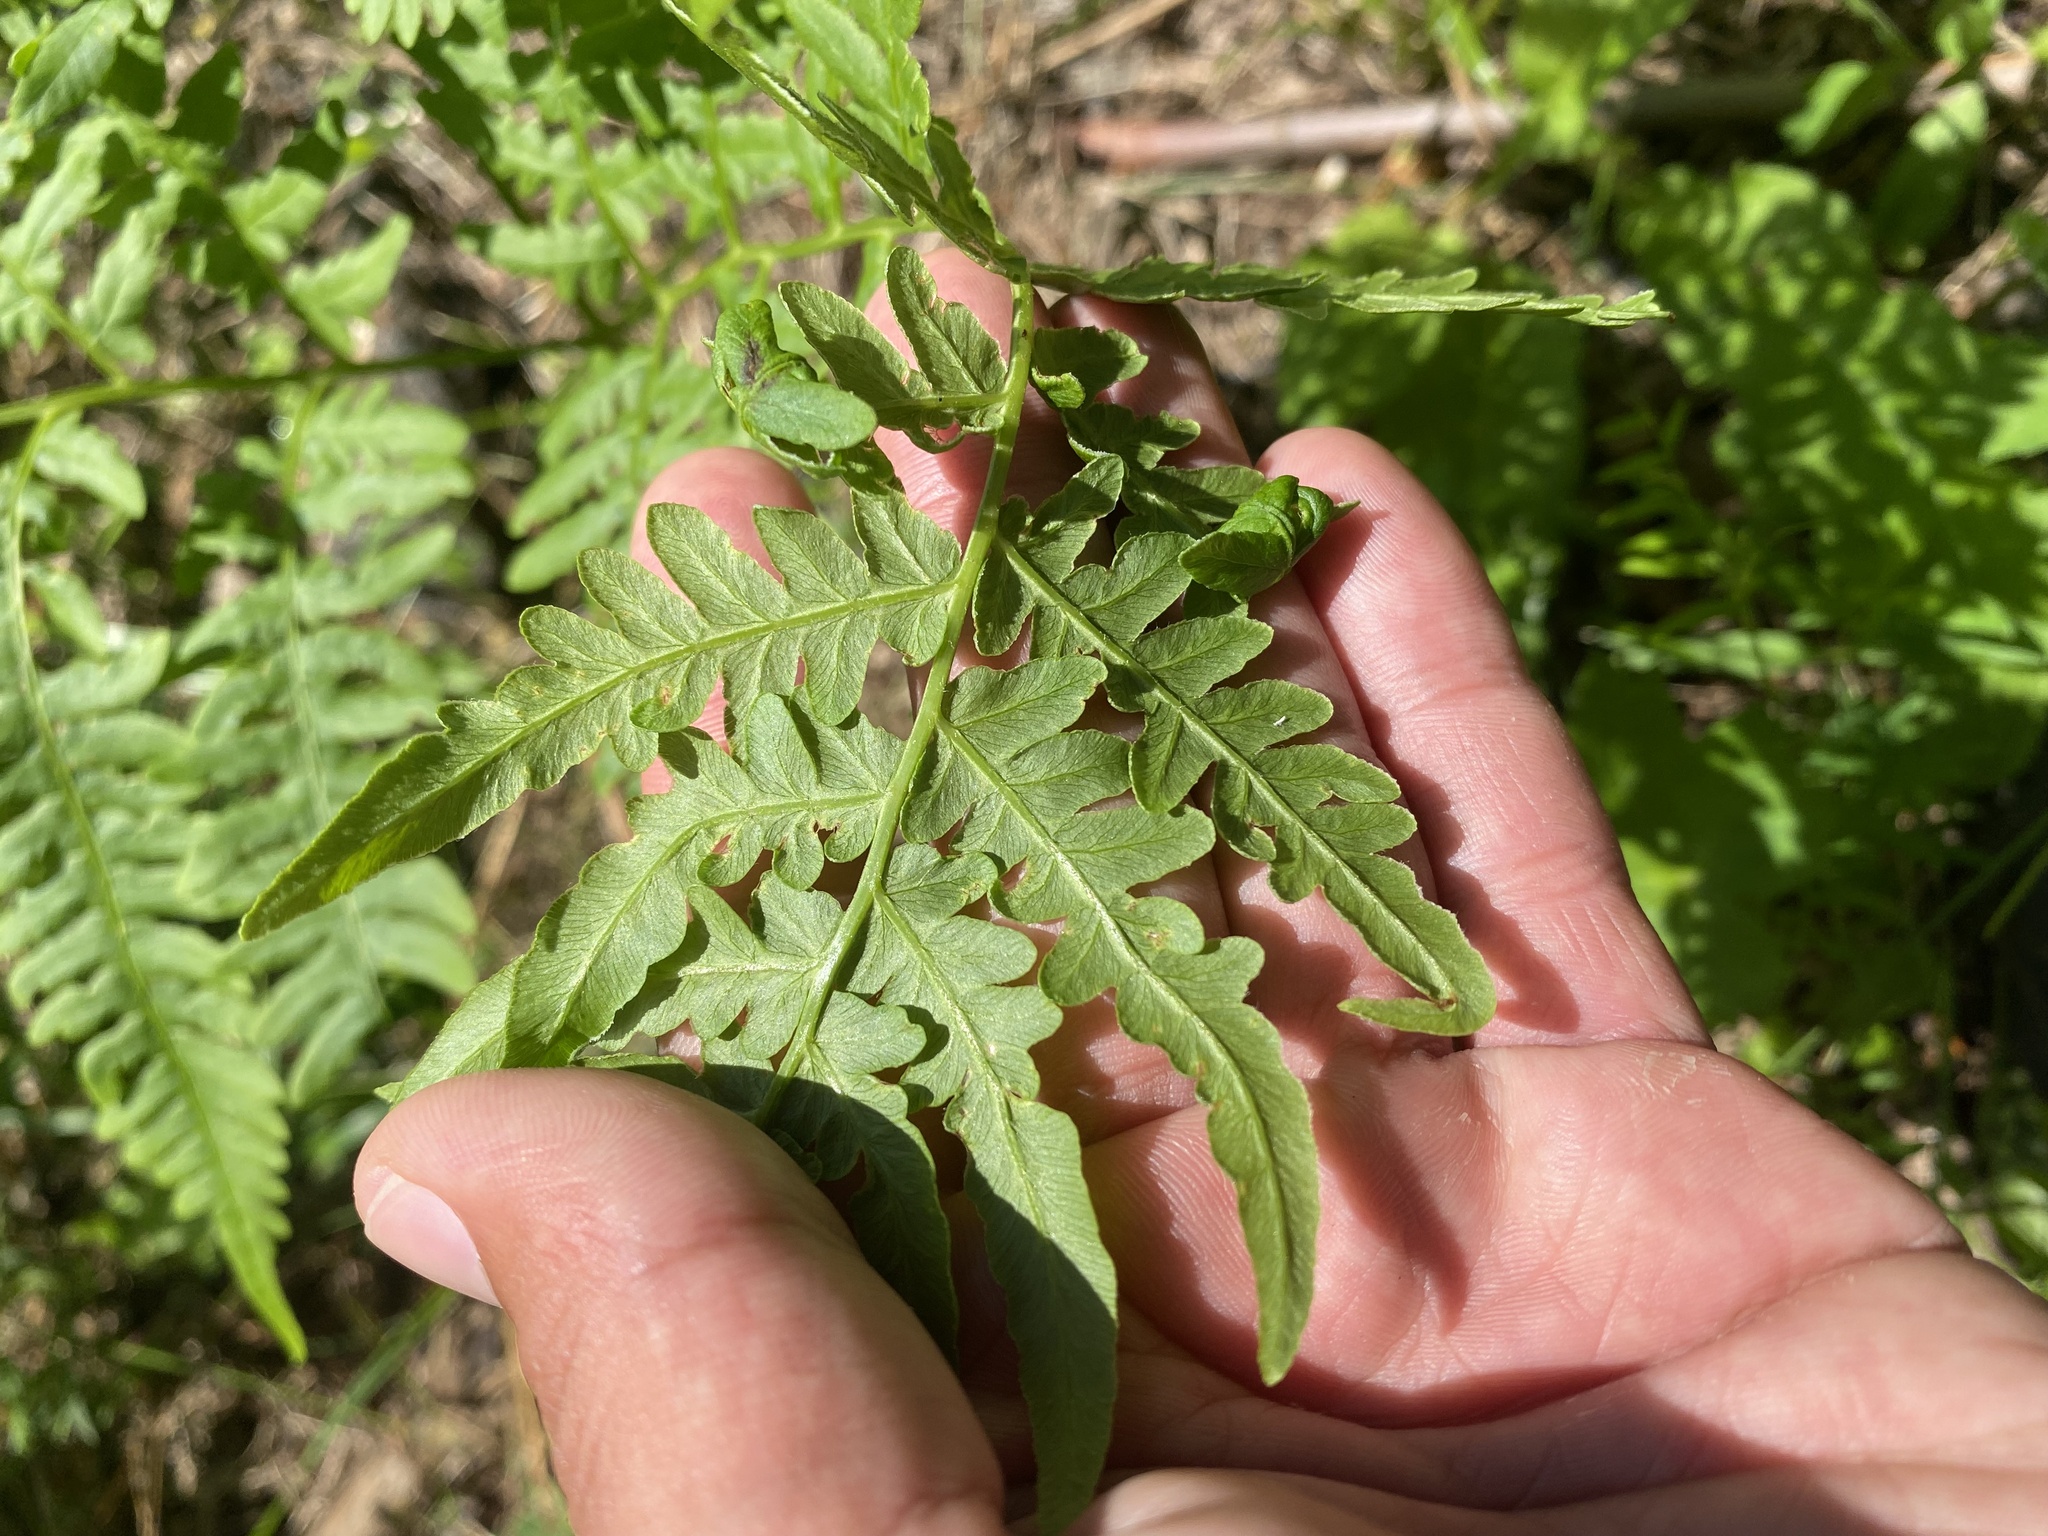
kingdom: Plantae
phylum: Tracheophyta
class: Polypodiopsida
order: Polypodiales
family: Dennstaedtiaceae
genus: Pteridium
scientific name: Pteridium aquilinum
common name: Bracken
